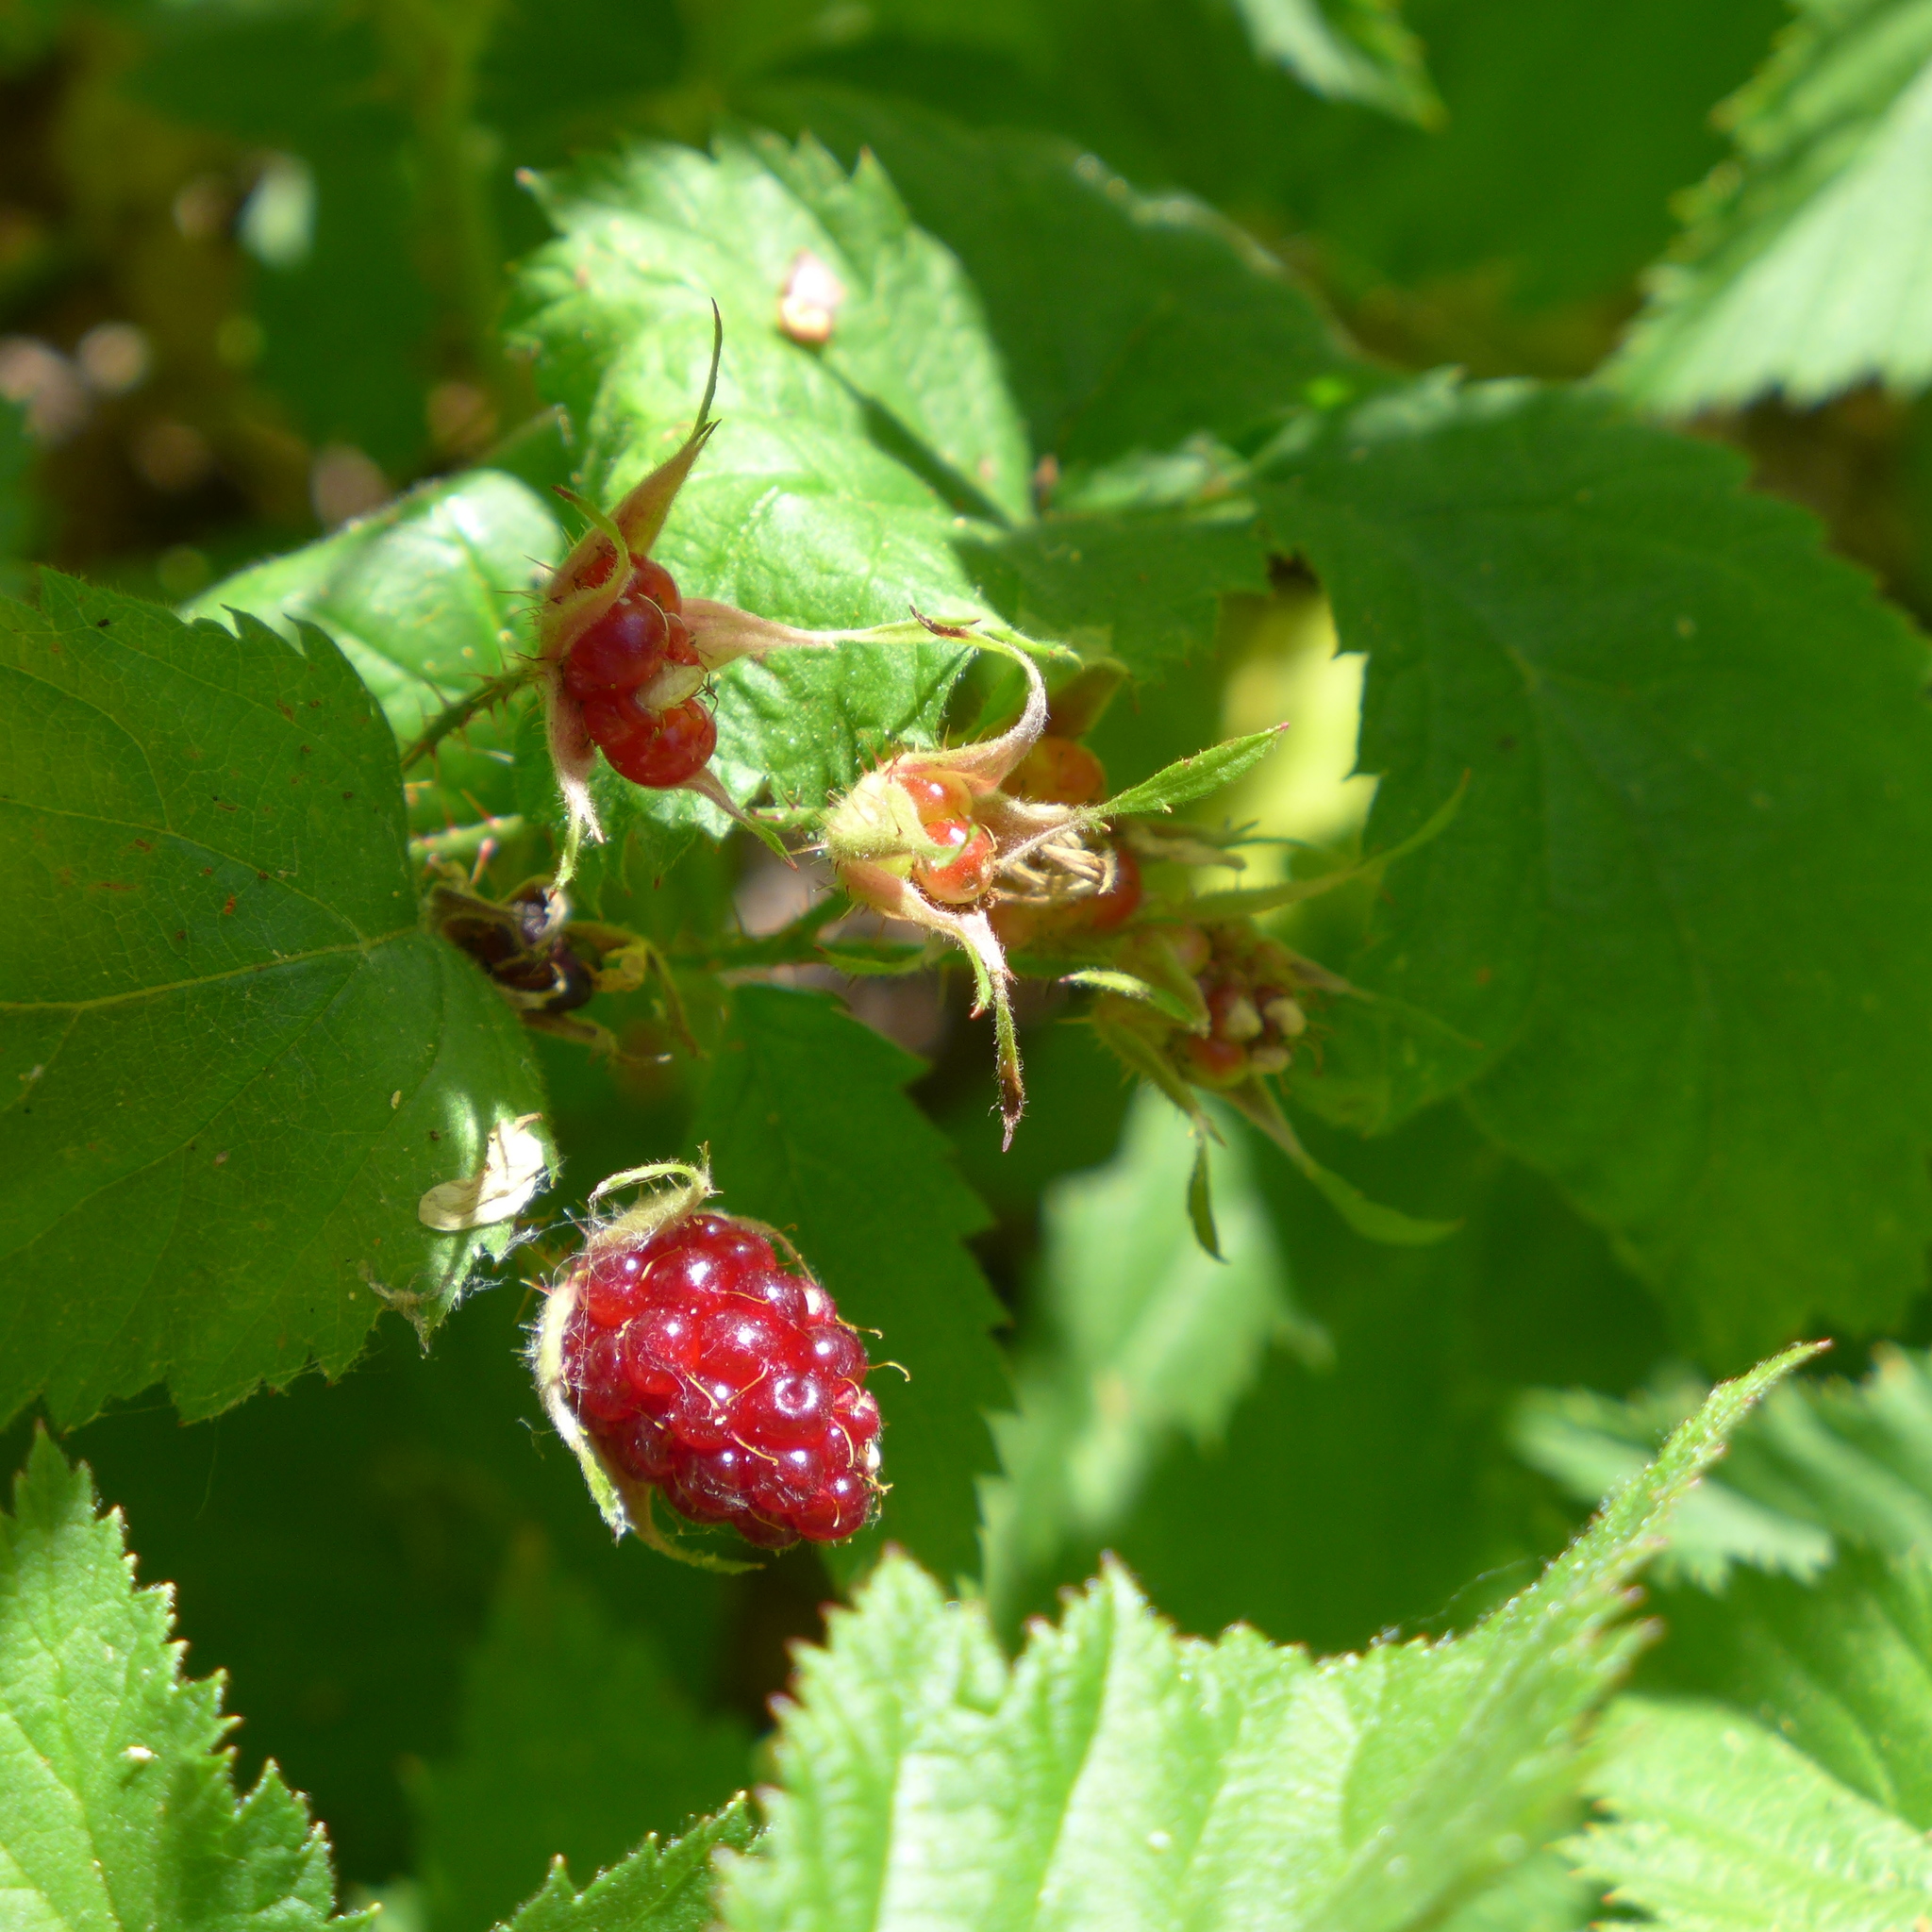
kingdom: Plantae
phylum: Tracheophyta
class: Magnoliopsida
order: Rosales
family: Rosaceae
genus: Rubus
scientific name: Rubus ursinus
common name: Pacific blackberry
